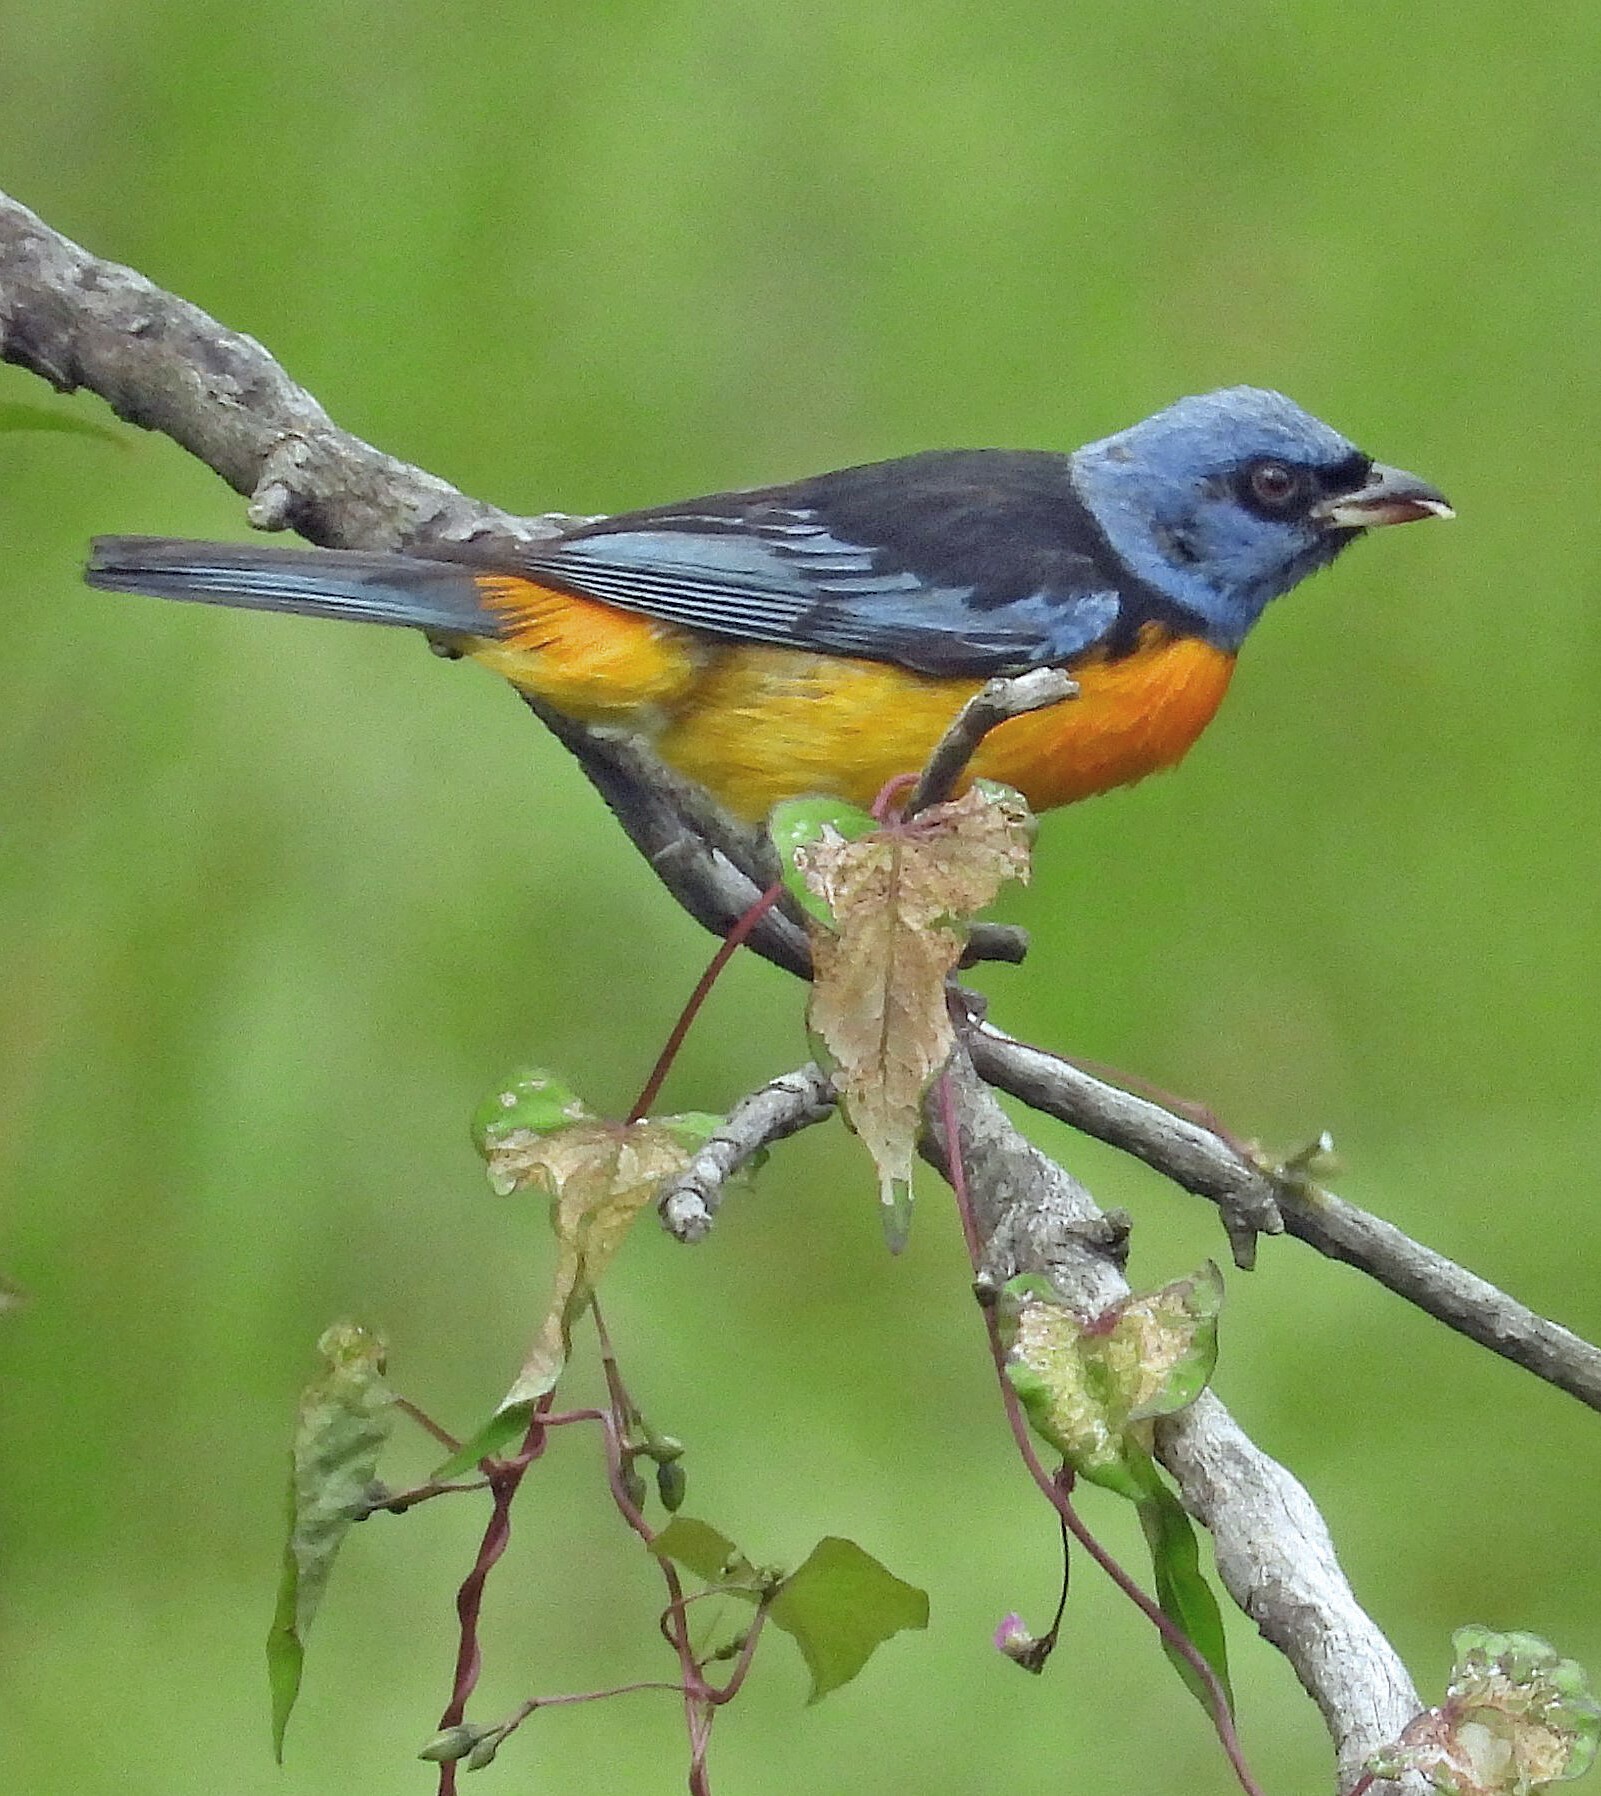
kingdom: Animalia
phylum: Chordata
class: Aves
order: Passeriformes
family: Thraupidae
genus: Rauenia
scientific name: Rauenia bonariensis
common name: Blue-and-yellow tanager
